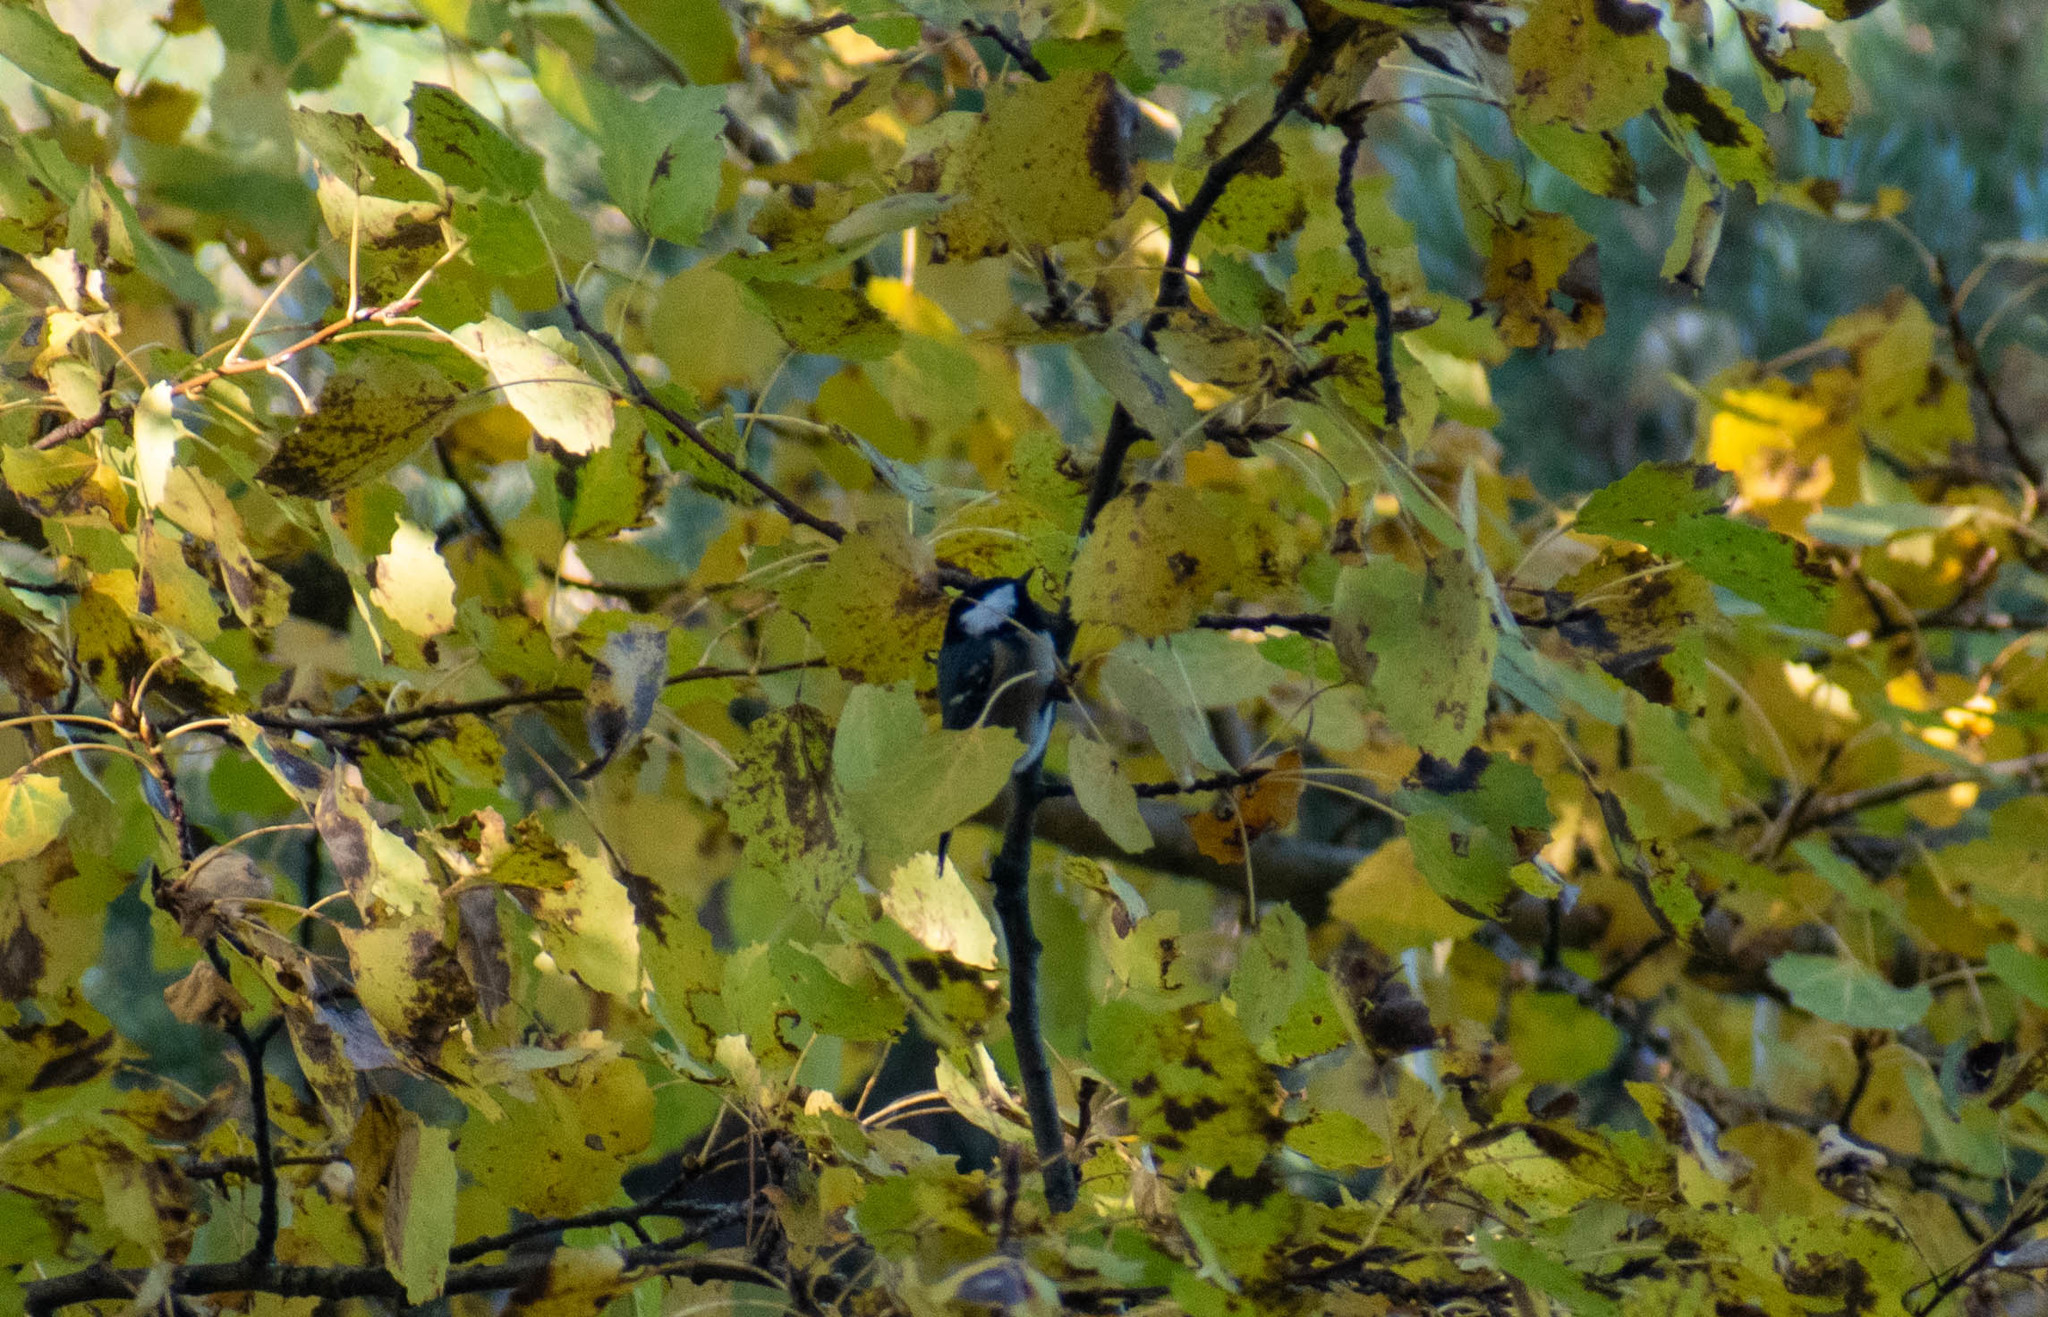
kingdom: Animalia
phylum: Chordata
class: Aves
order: Passeriformes
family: Paridae
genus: Periparus
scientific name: Periparus ater
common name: Coal tit
